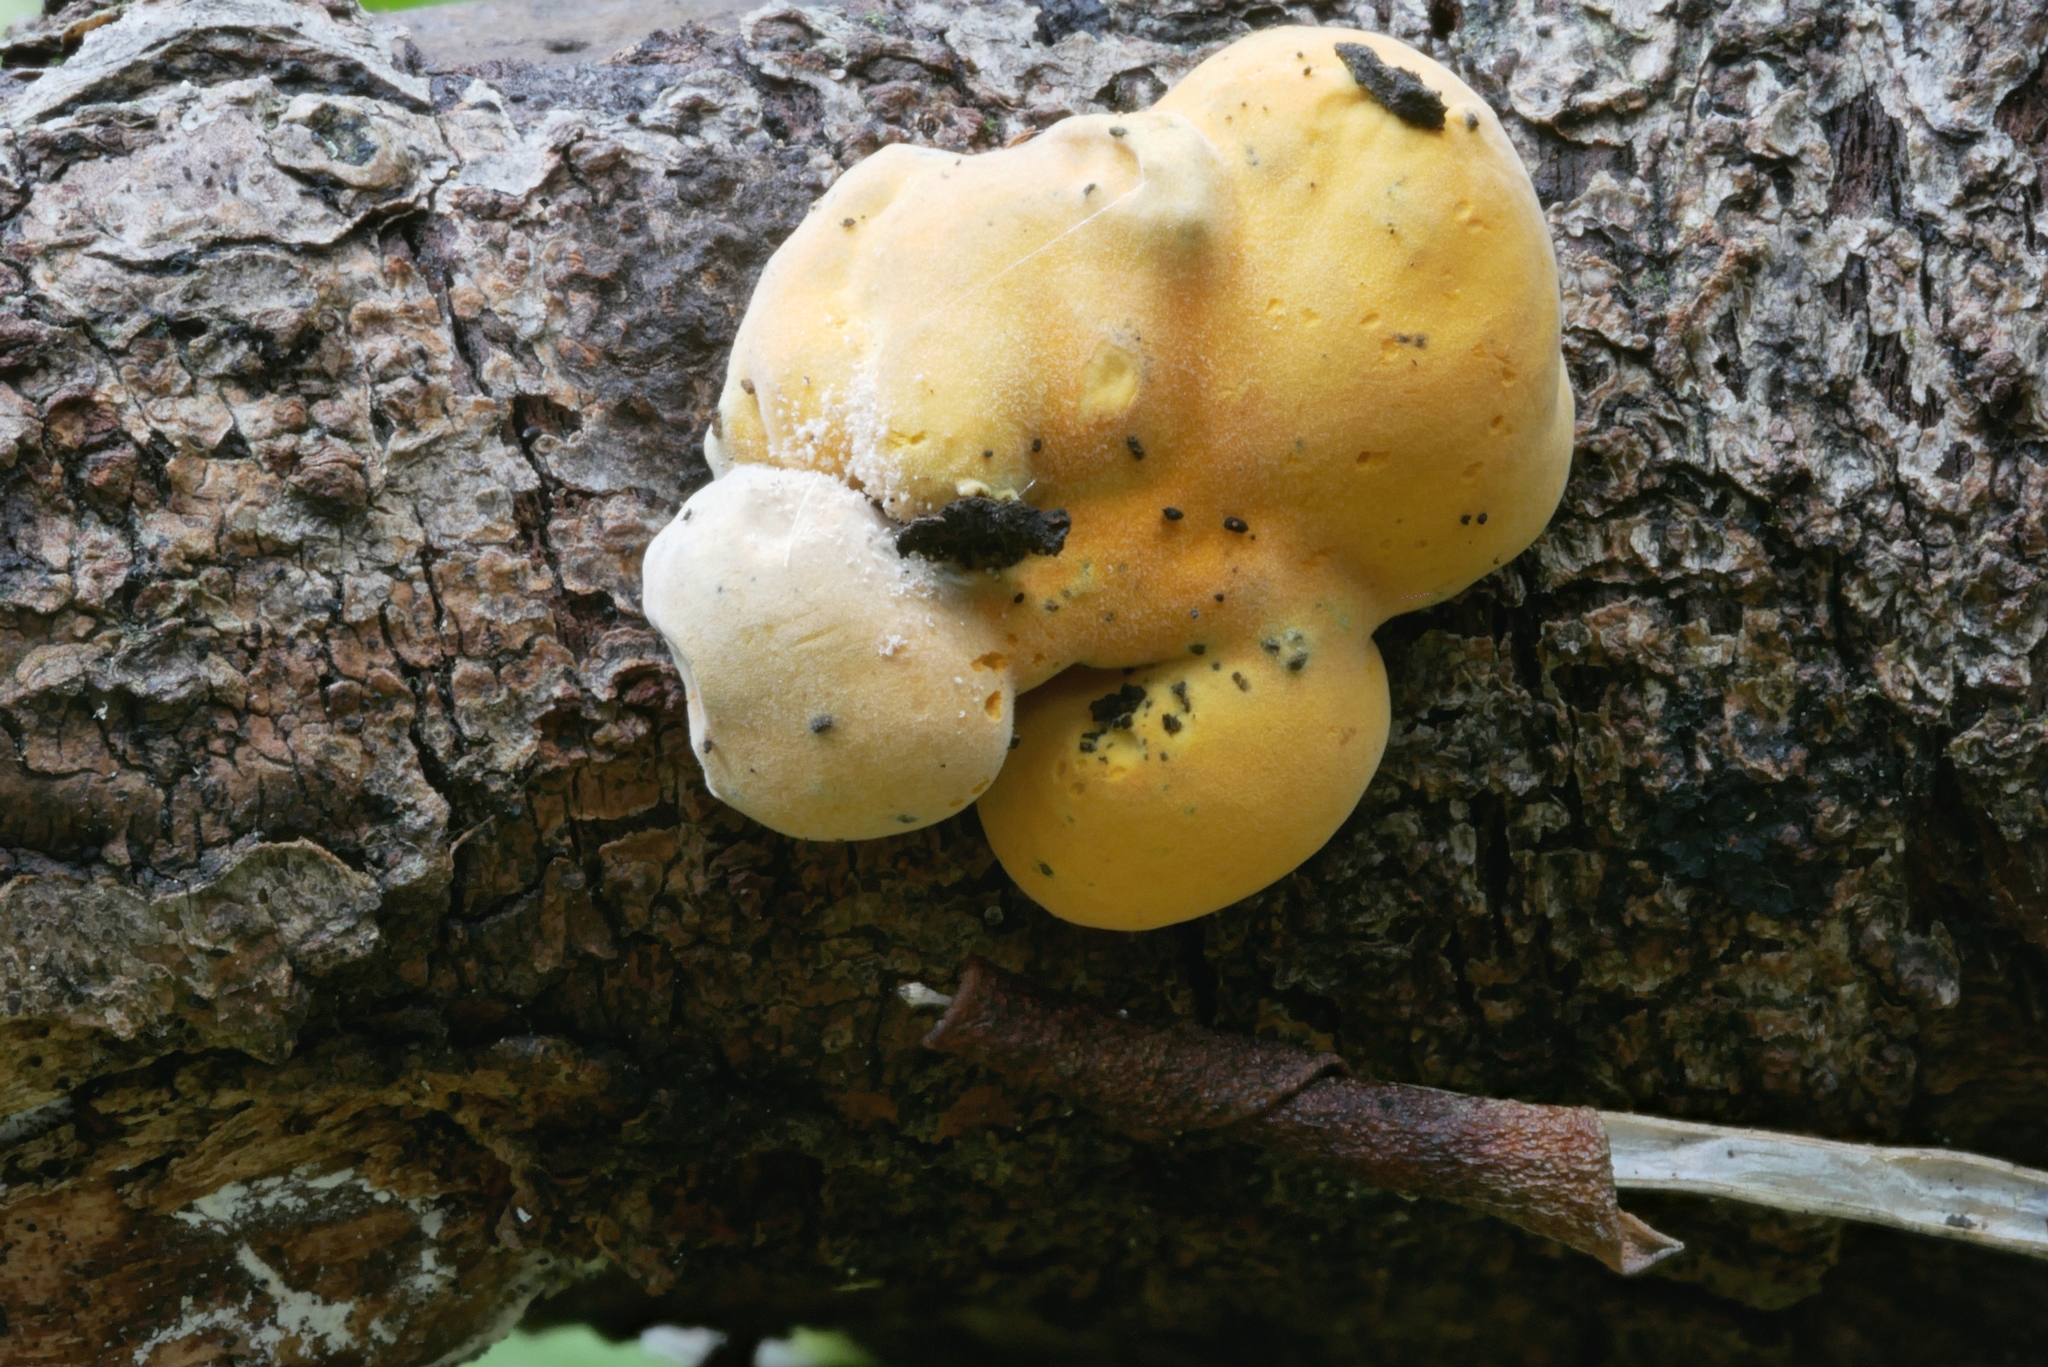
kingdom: Fungi
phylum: Ascomycota
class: Sordariomycetes
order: Xylariales
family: Hypoxylaceae
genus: Thuemenella
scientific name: Thuemenella cubispora
